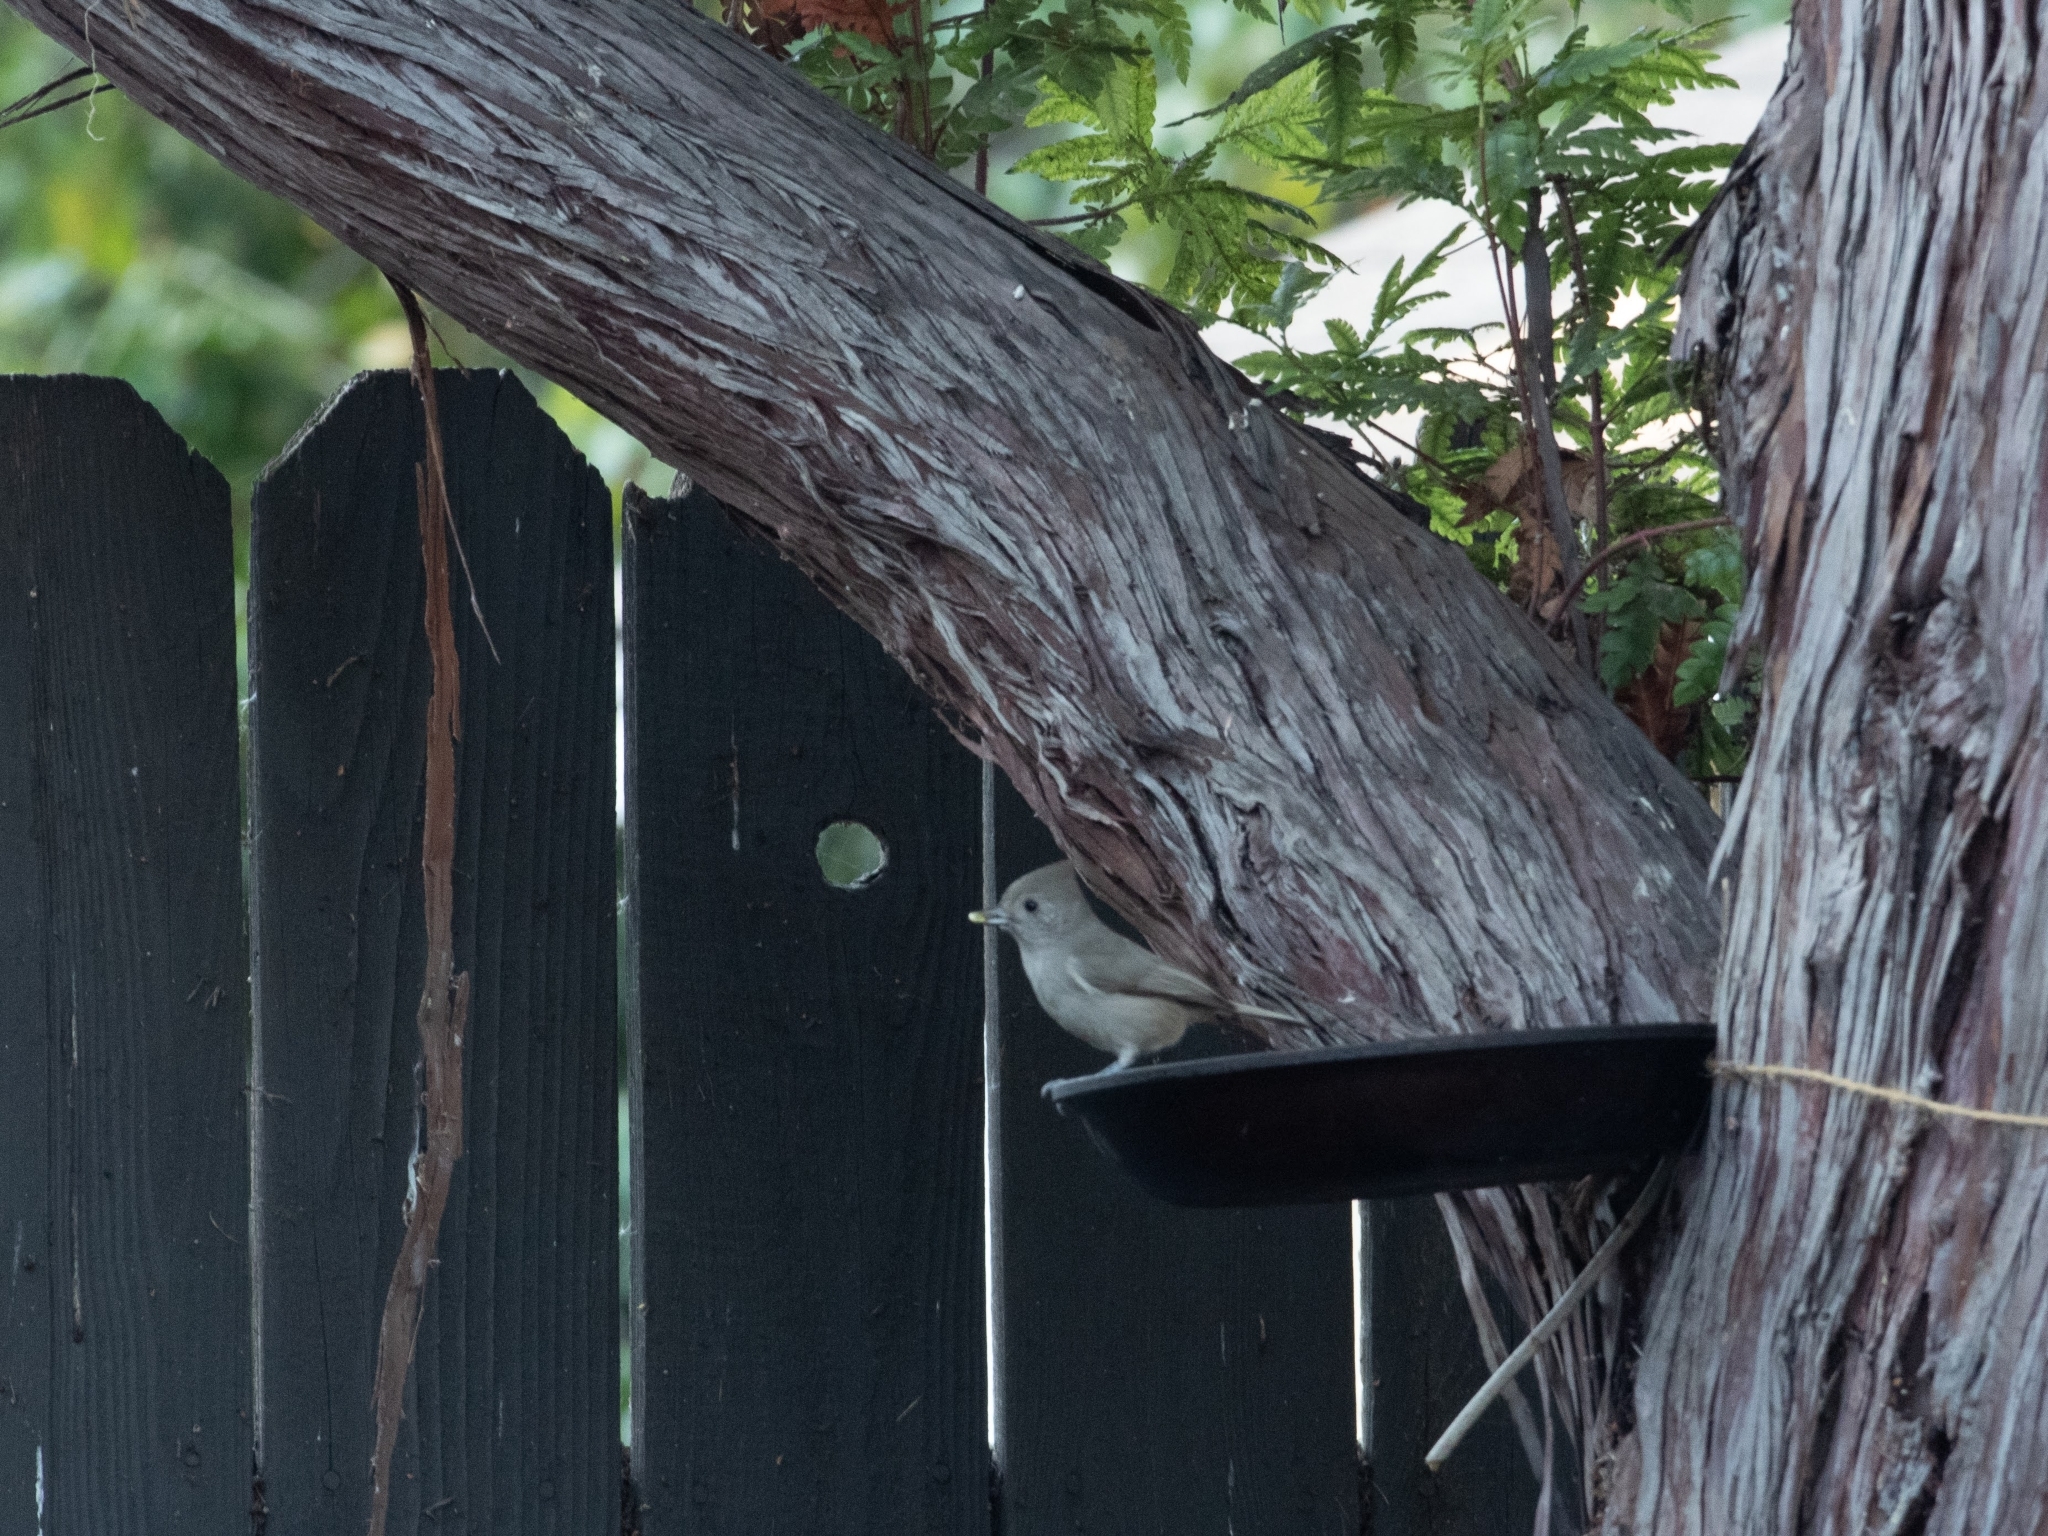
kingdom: Animalia
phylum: Chordata
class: Aves
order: Passeriformes
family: Paridae
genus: Baeolophus
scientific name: Baeolophus inornatus
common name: Oak titmouse
